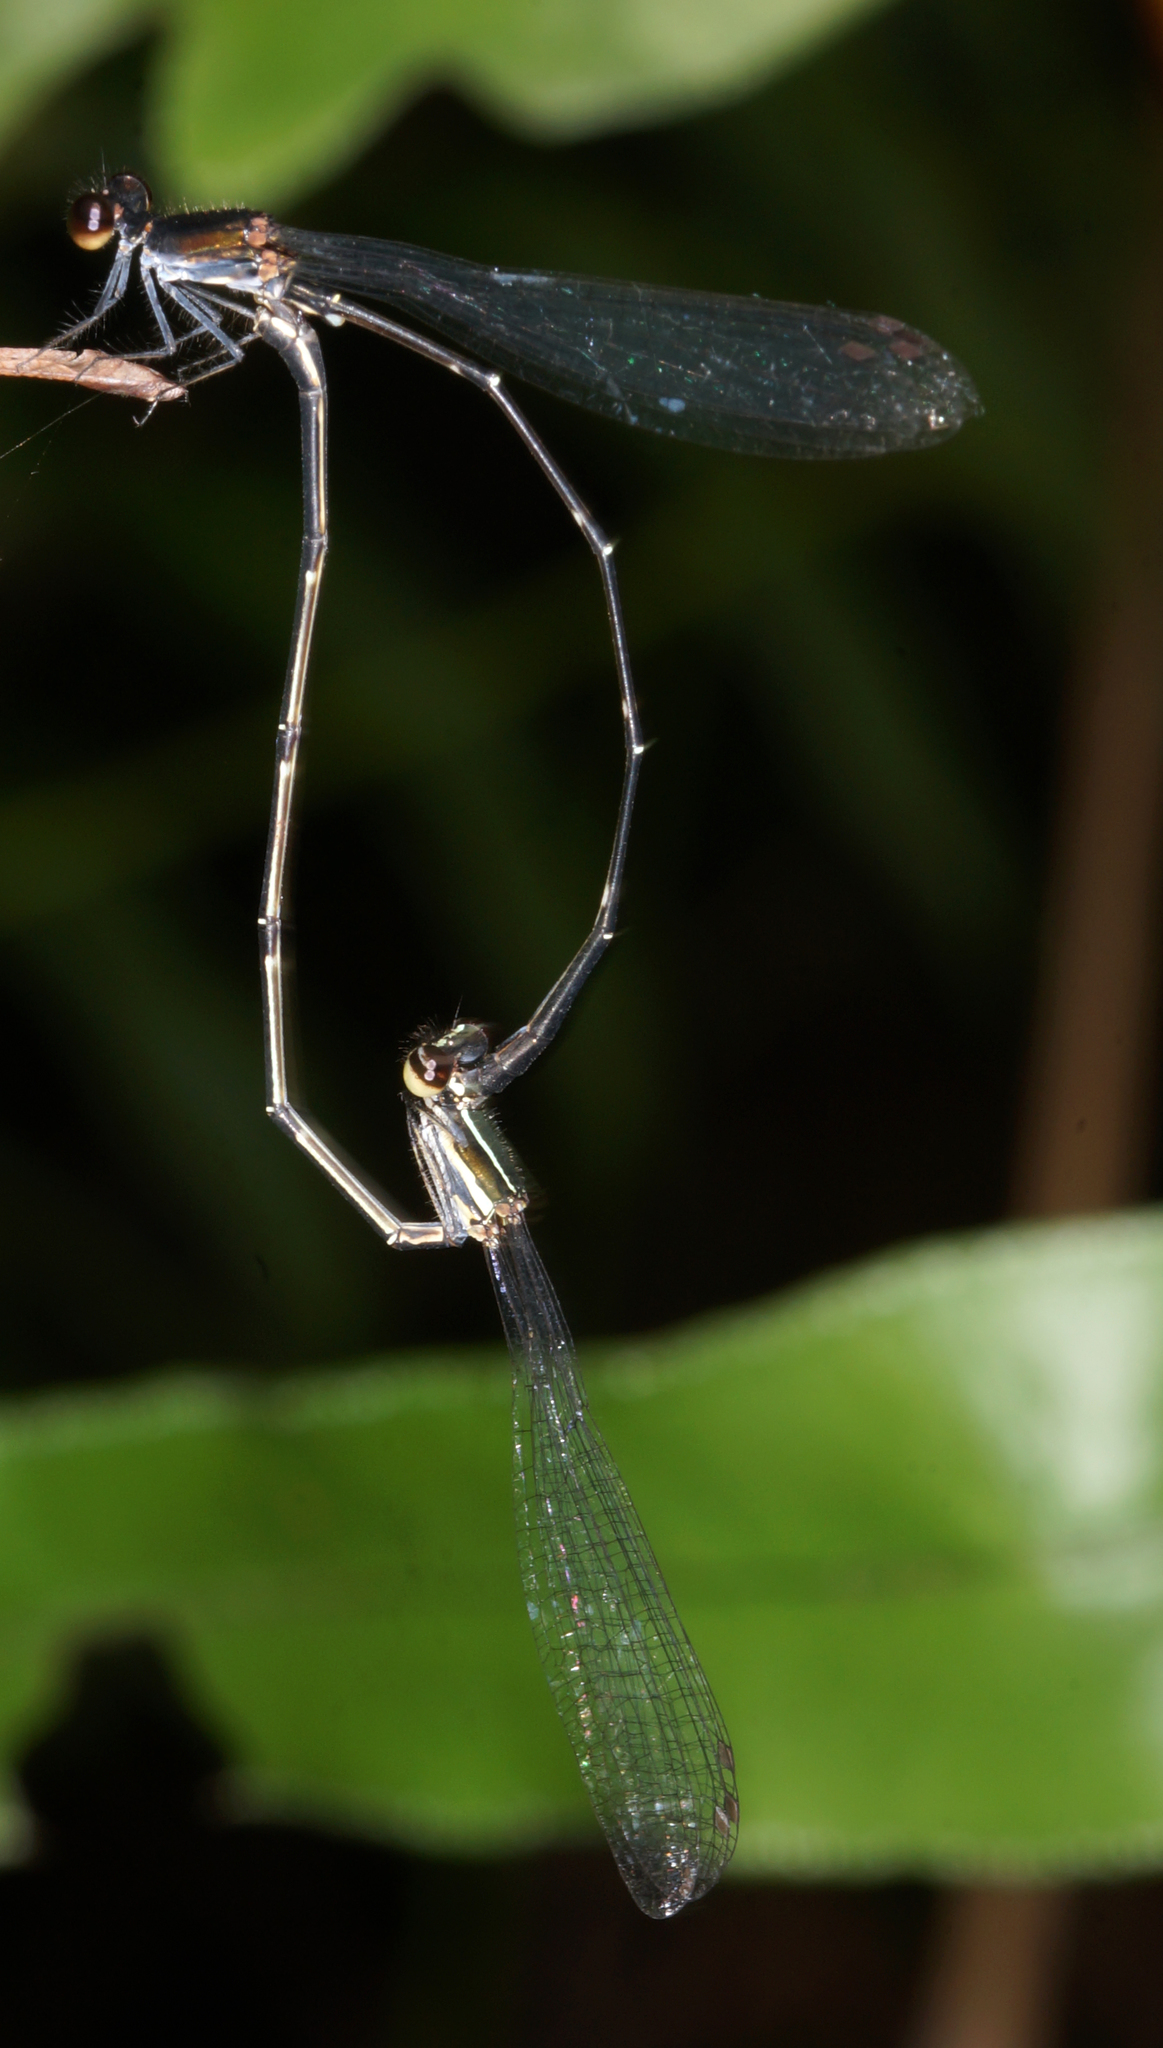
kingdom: Animalia
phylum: Arthropoda
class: Insecta
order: Odonata
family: Platycnemididae
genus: Prodasineura
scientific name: Prodasineura autumnalis
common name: Black threadtail
